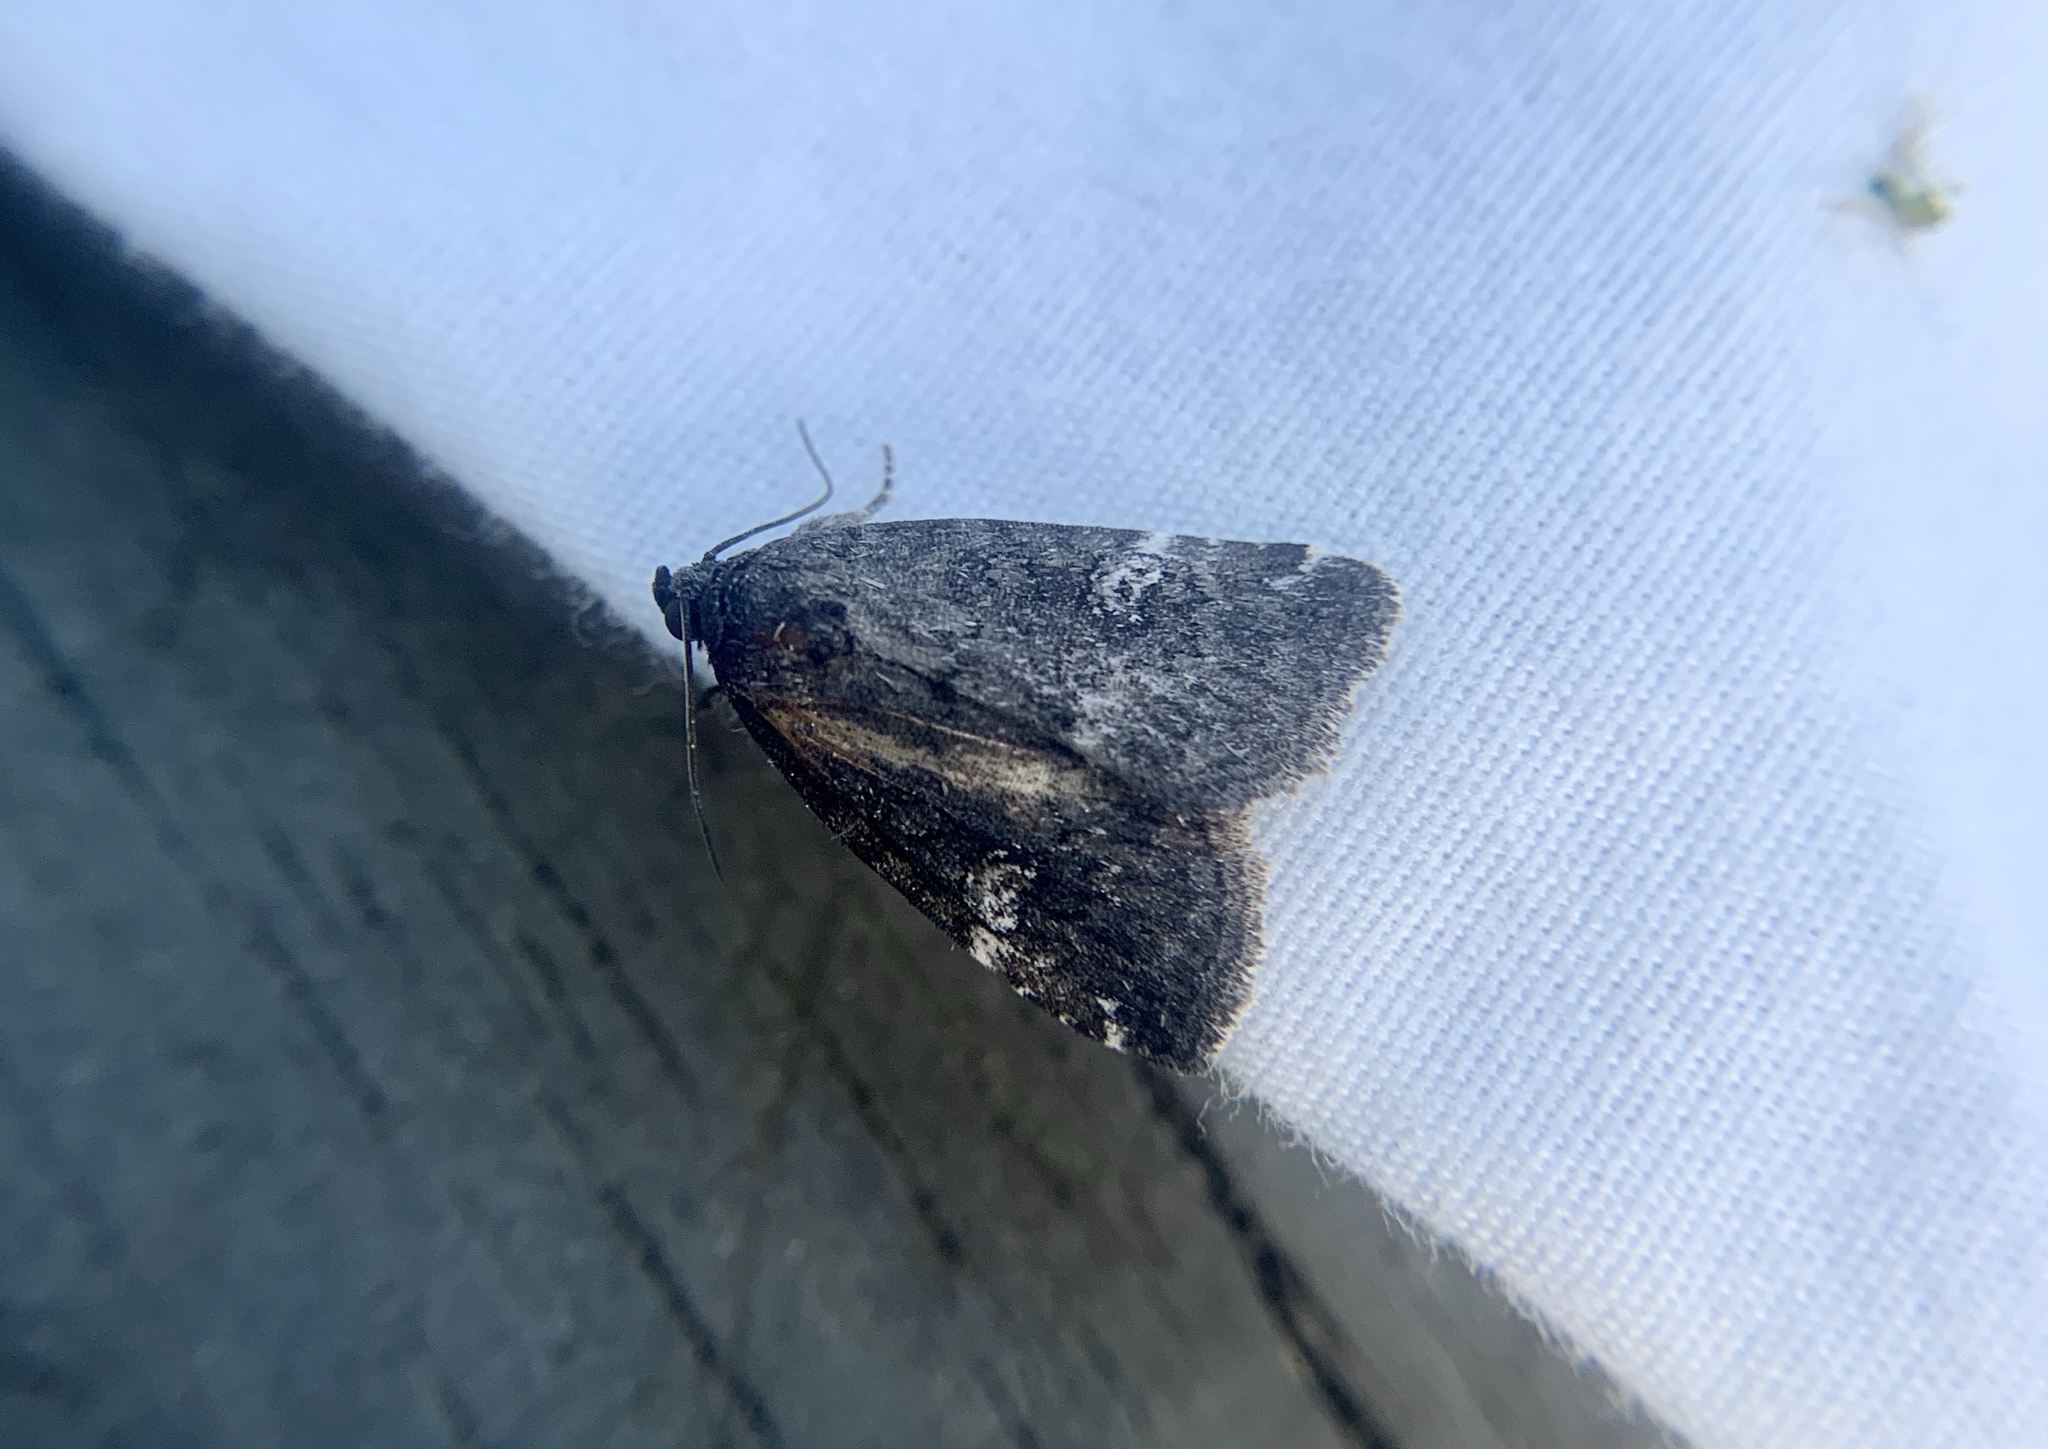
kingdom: Animalia
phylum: Arthropoda
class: Insecta
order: Lepidoptera
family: Noctuidae
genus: Anterastria
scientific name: Anterastria teratophora
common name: Gray marvel moth
